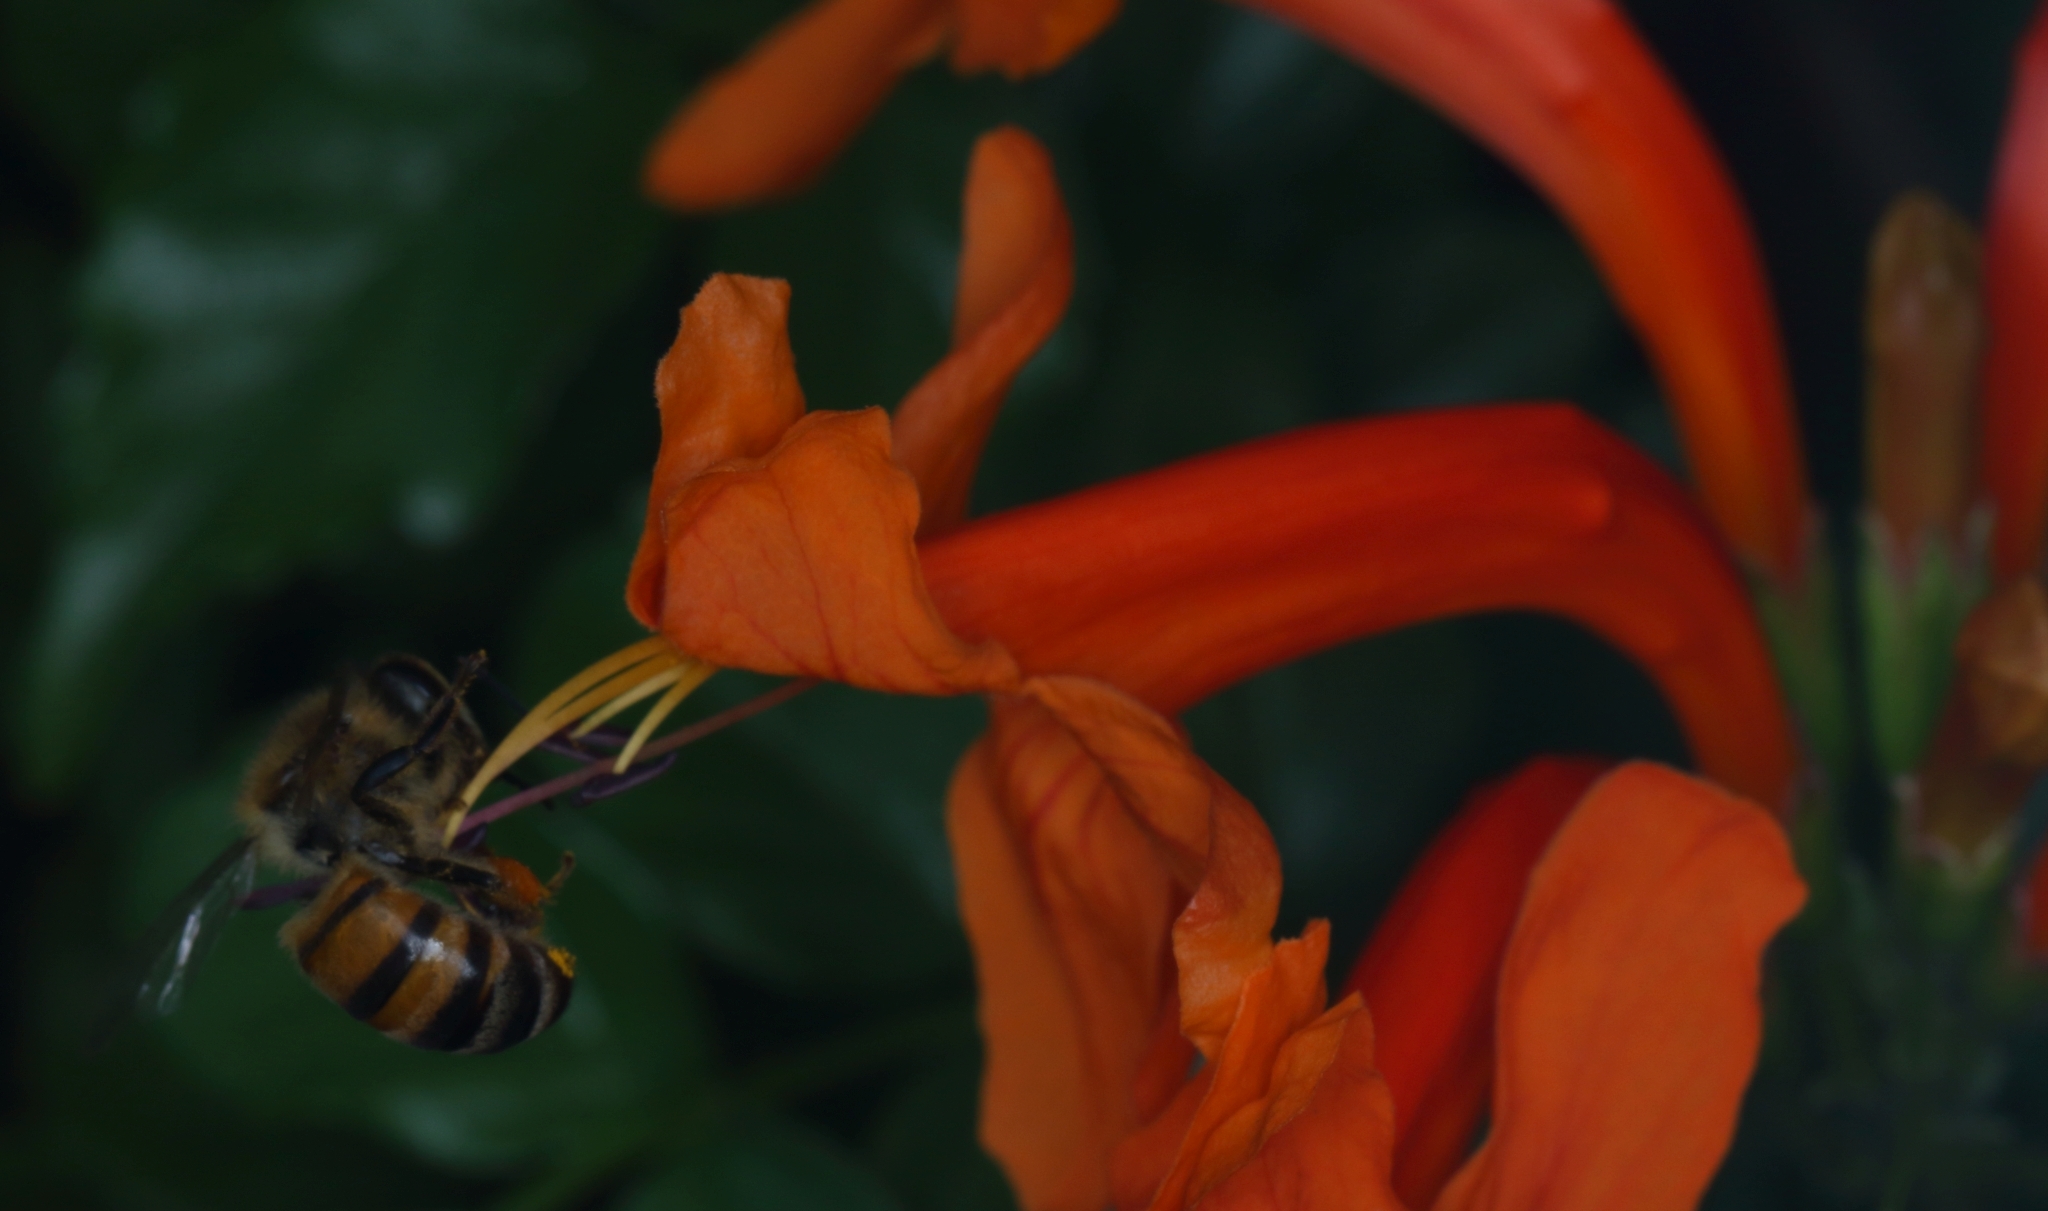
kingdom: Animalia
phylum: Arthropoda
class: Insecta
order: Hymenoptera
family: Apidae
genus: Apis
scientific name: Apis mellifera
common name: Honey bee
